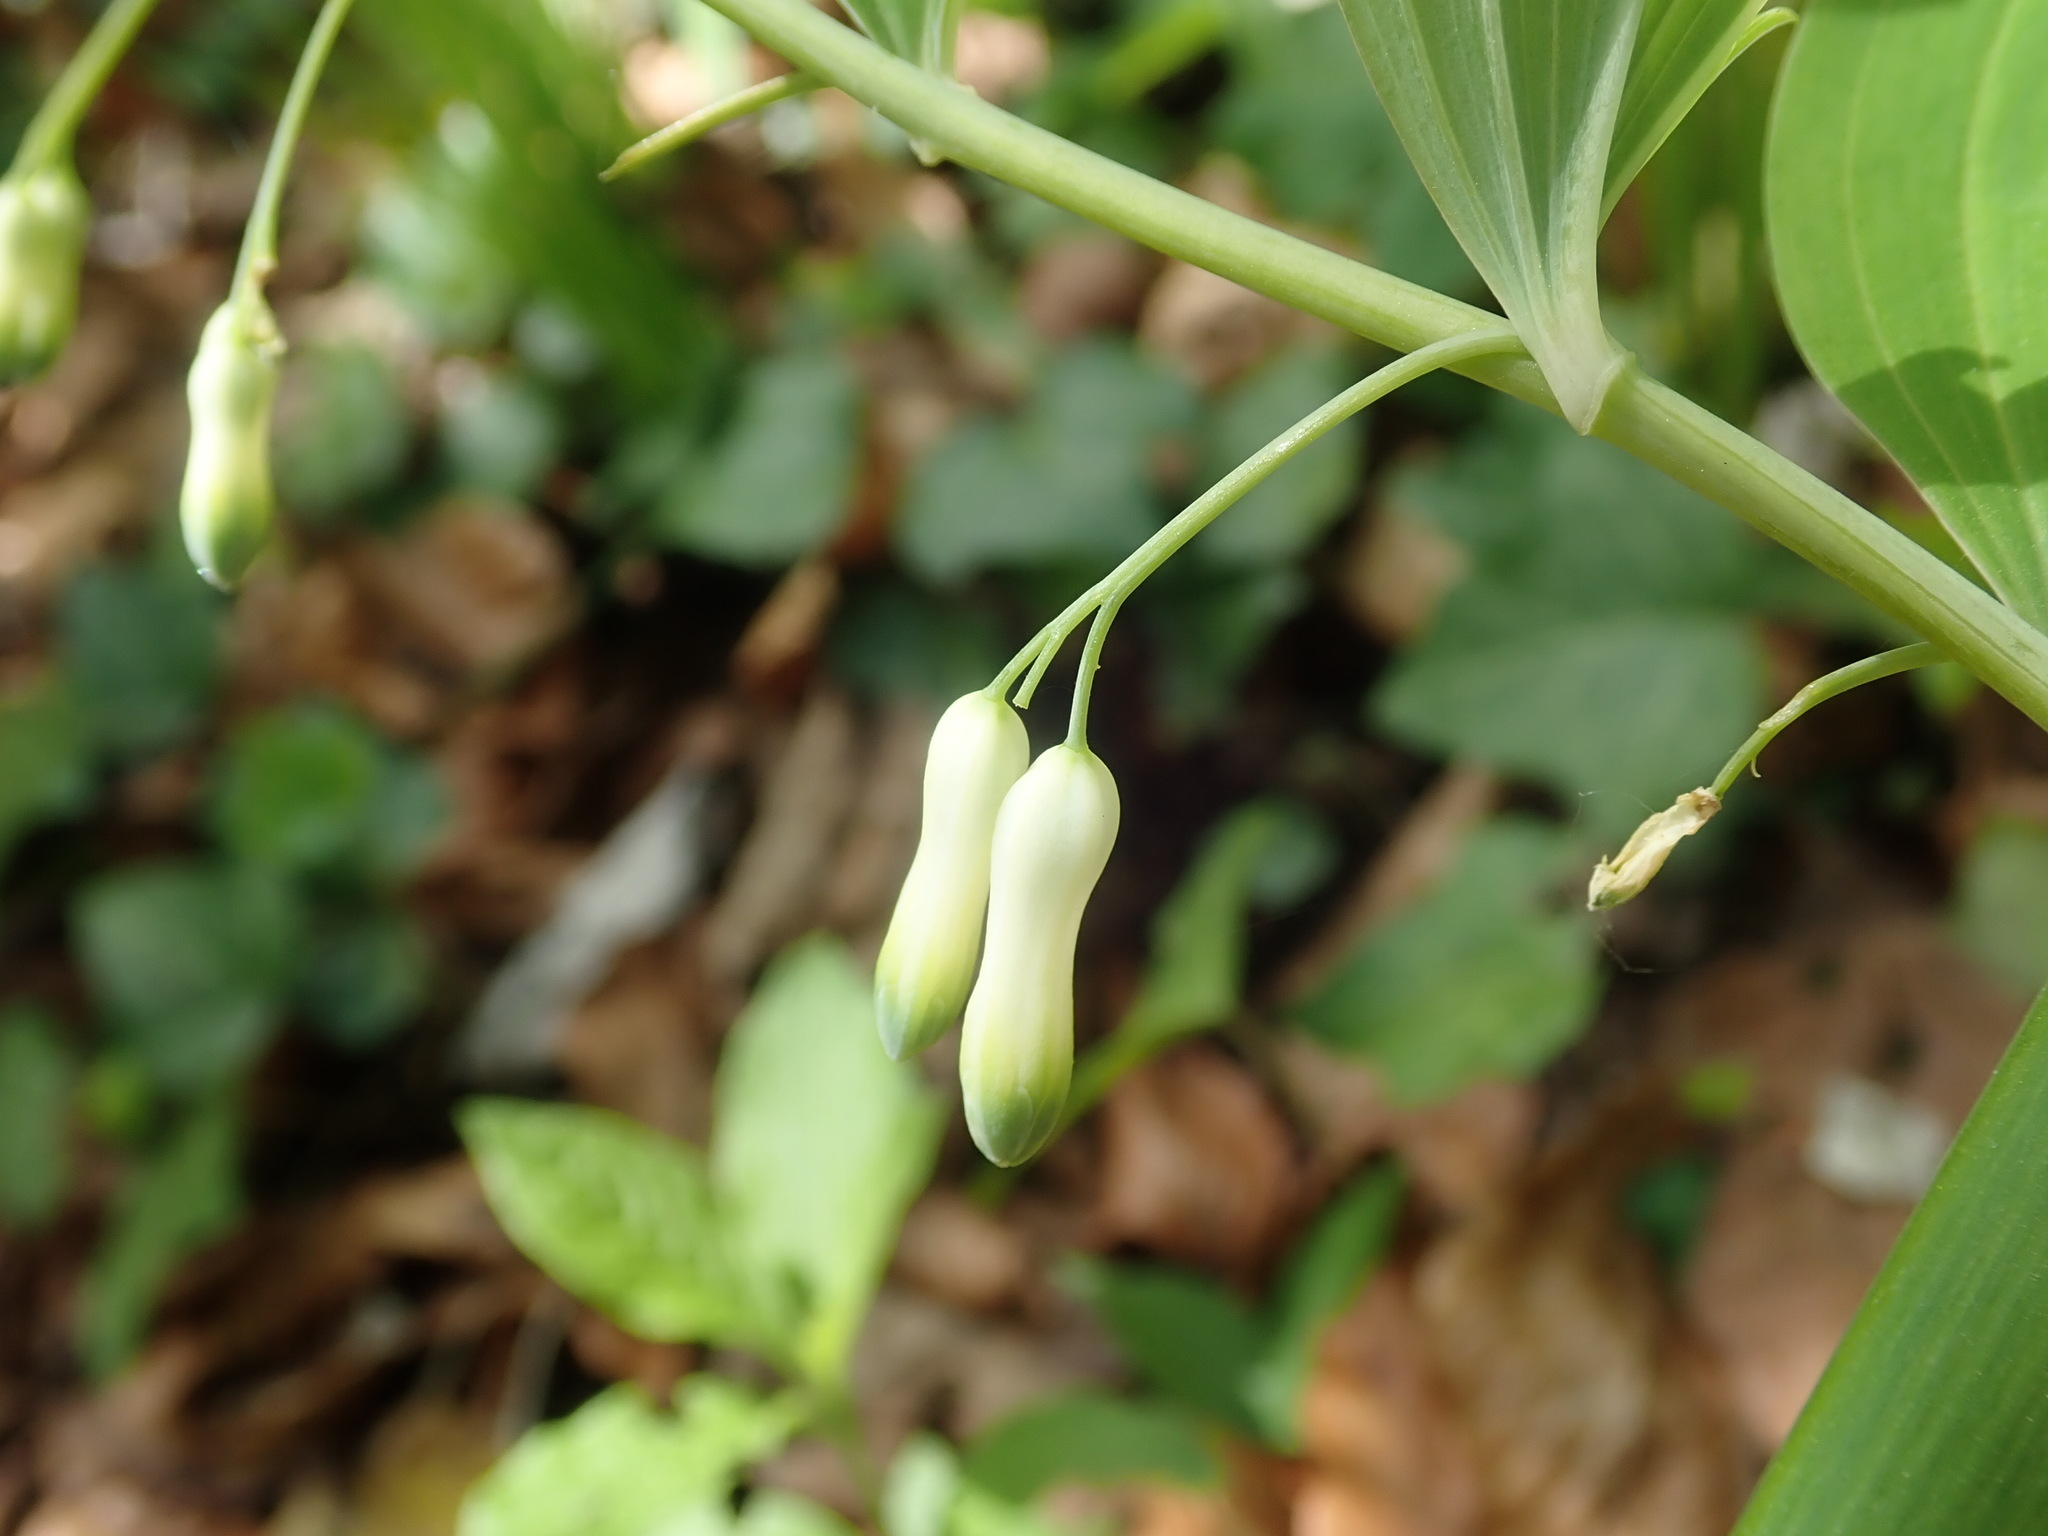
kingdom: Plantae
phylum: Tracheophyta
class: Liliopsida
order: Asparagales
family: Asparagaceae
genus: Polygonatum
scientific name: Polygonatum multiflorum
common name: Solomon's-seal
